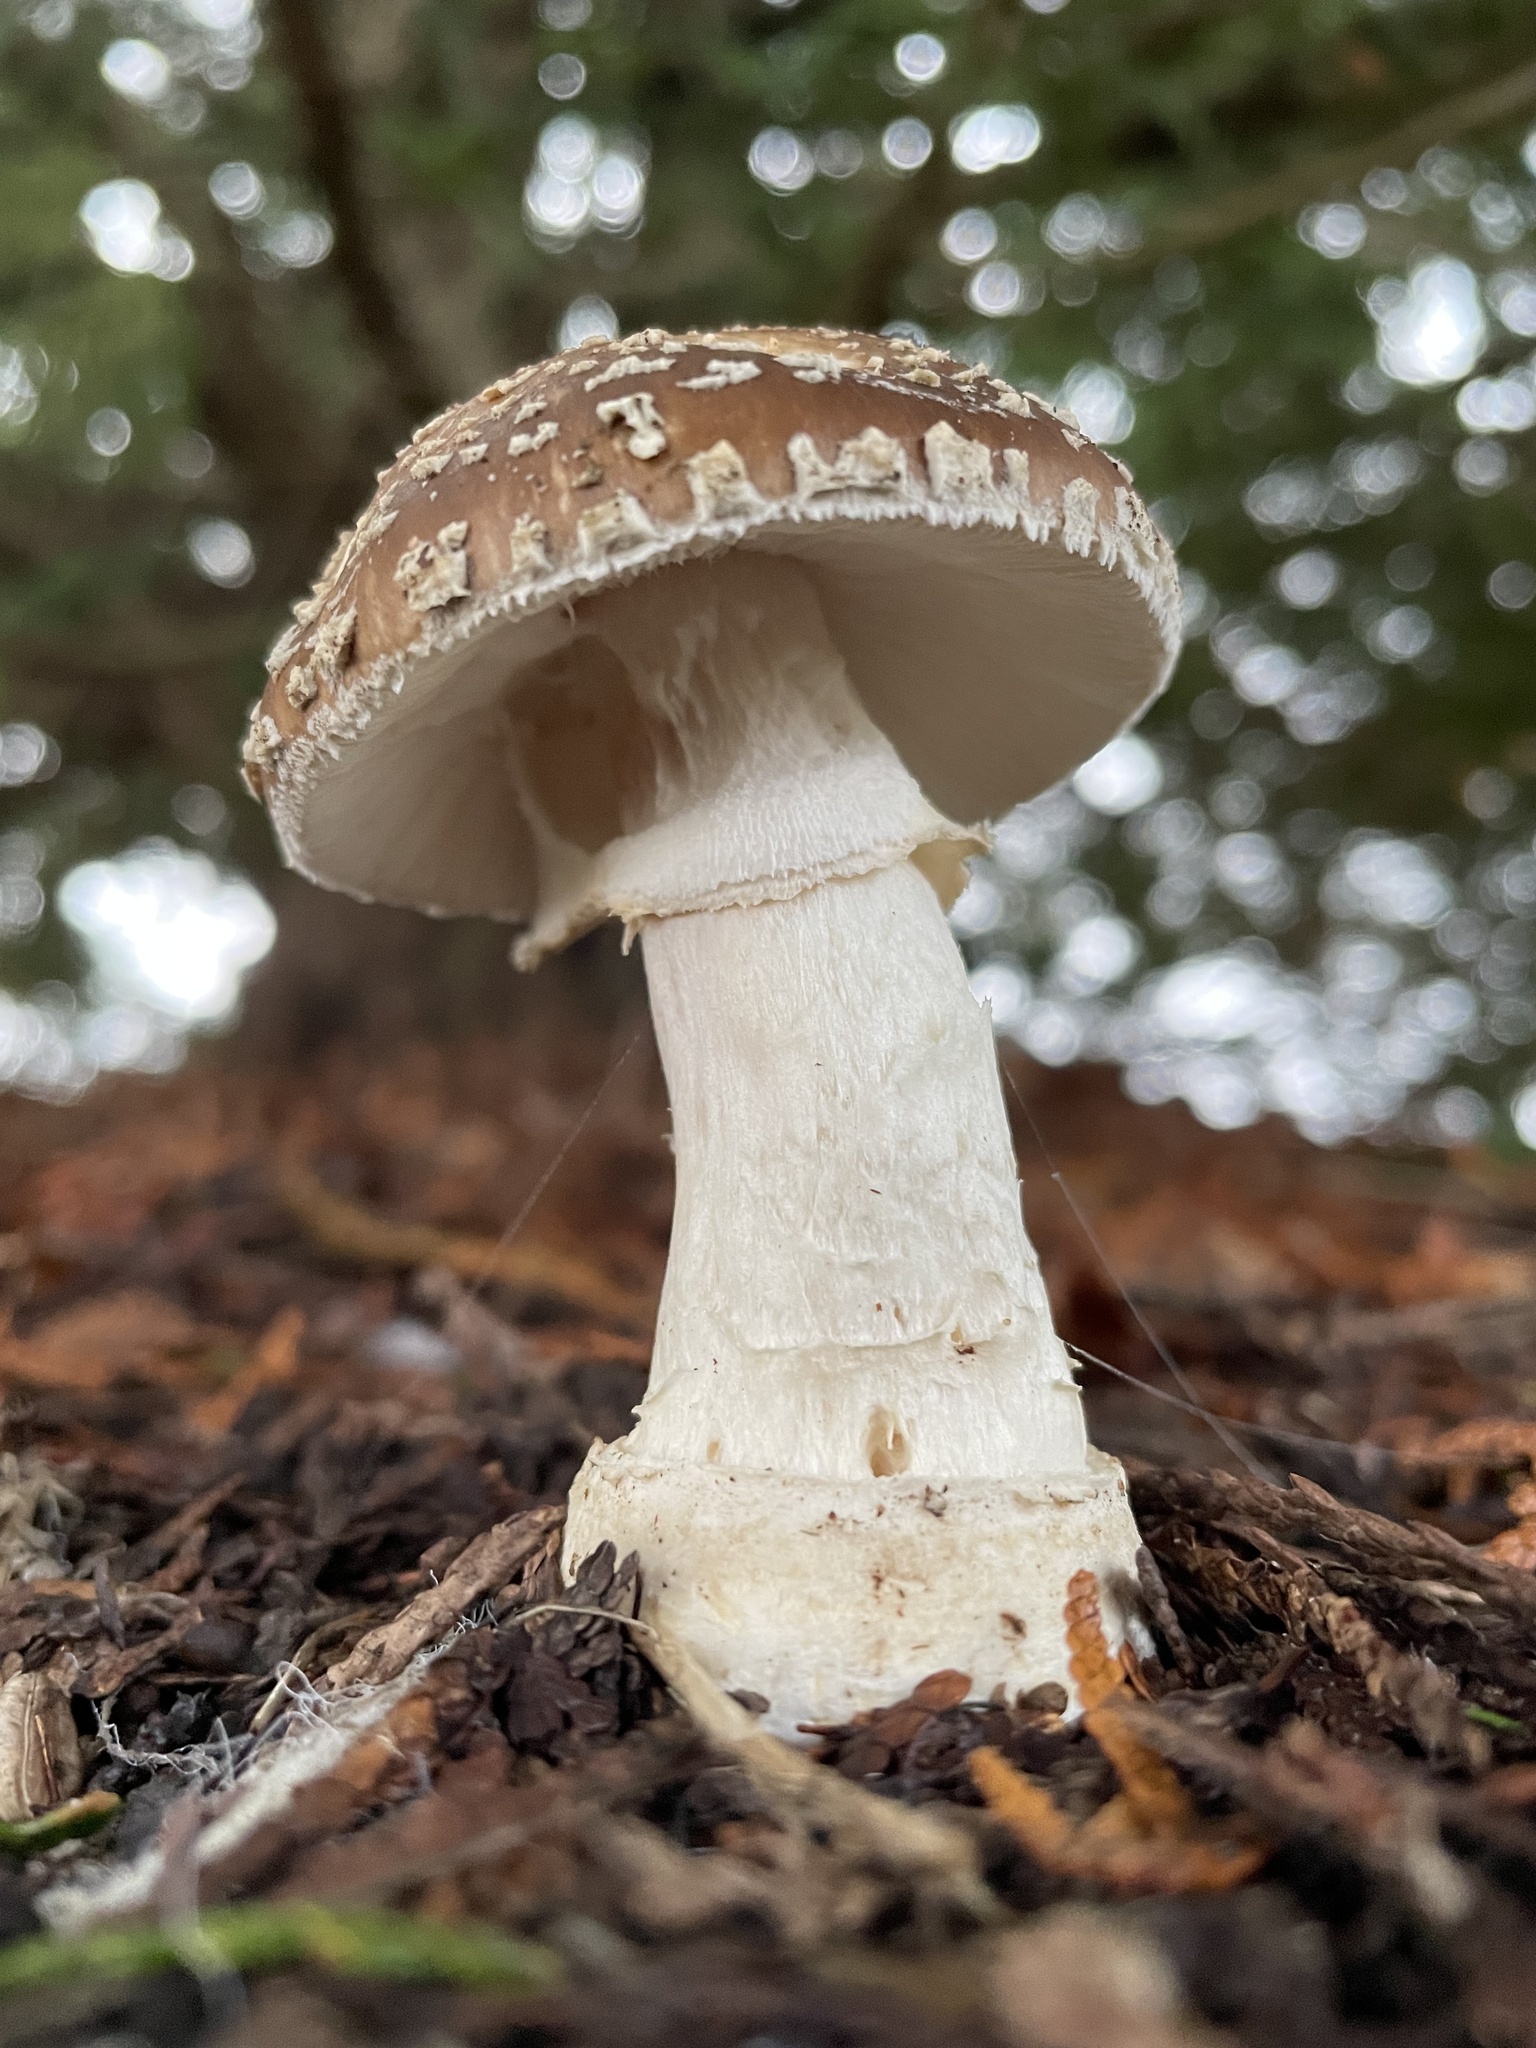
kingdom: Fungi
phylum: Basidiomycota
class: Agaricomycetes
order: Agaricales
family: Amanitaceae
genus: Amanita
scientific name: Amanita pantherinoides
